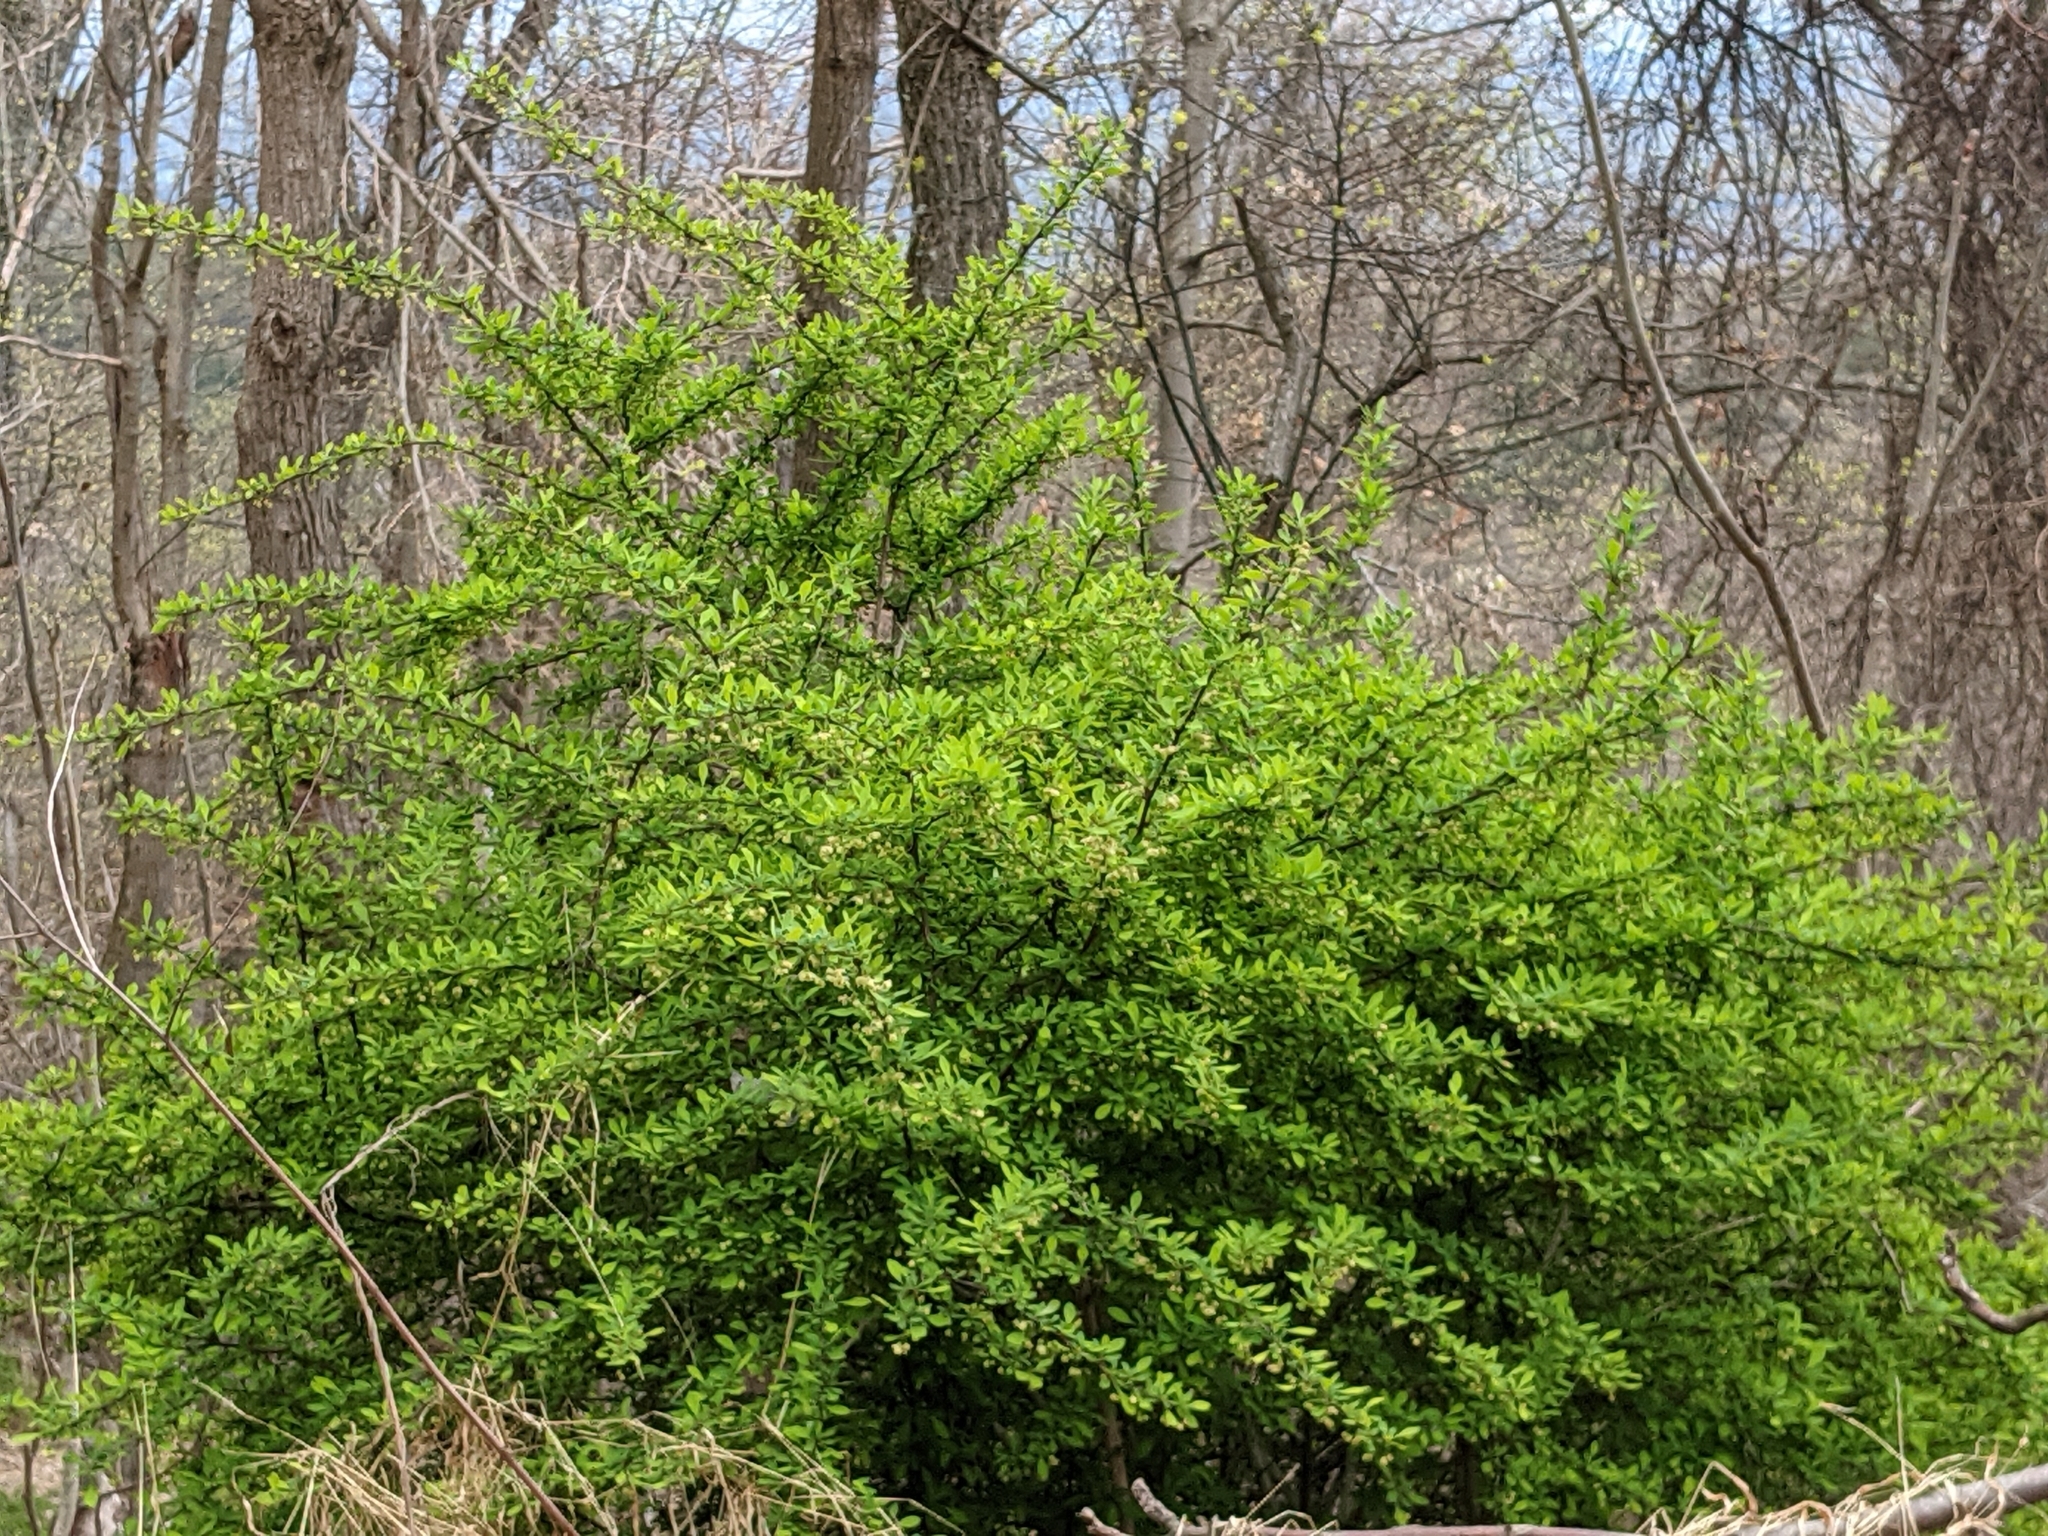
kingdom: Plantae
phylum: Tracheophyta
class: Magnoliopsida
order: Ranunculales
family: Berberidaceae
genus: Berberis
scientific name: Berberis thunbergii
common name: Japanese barberry
